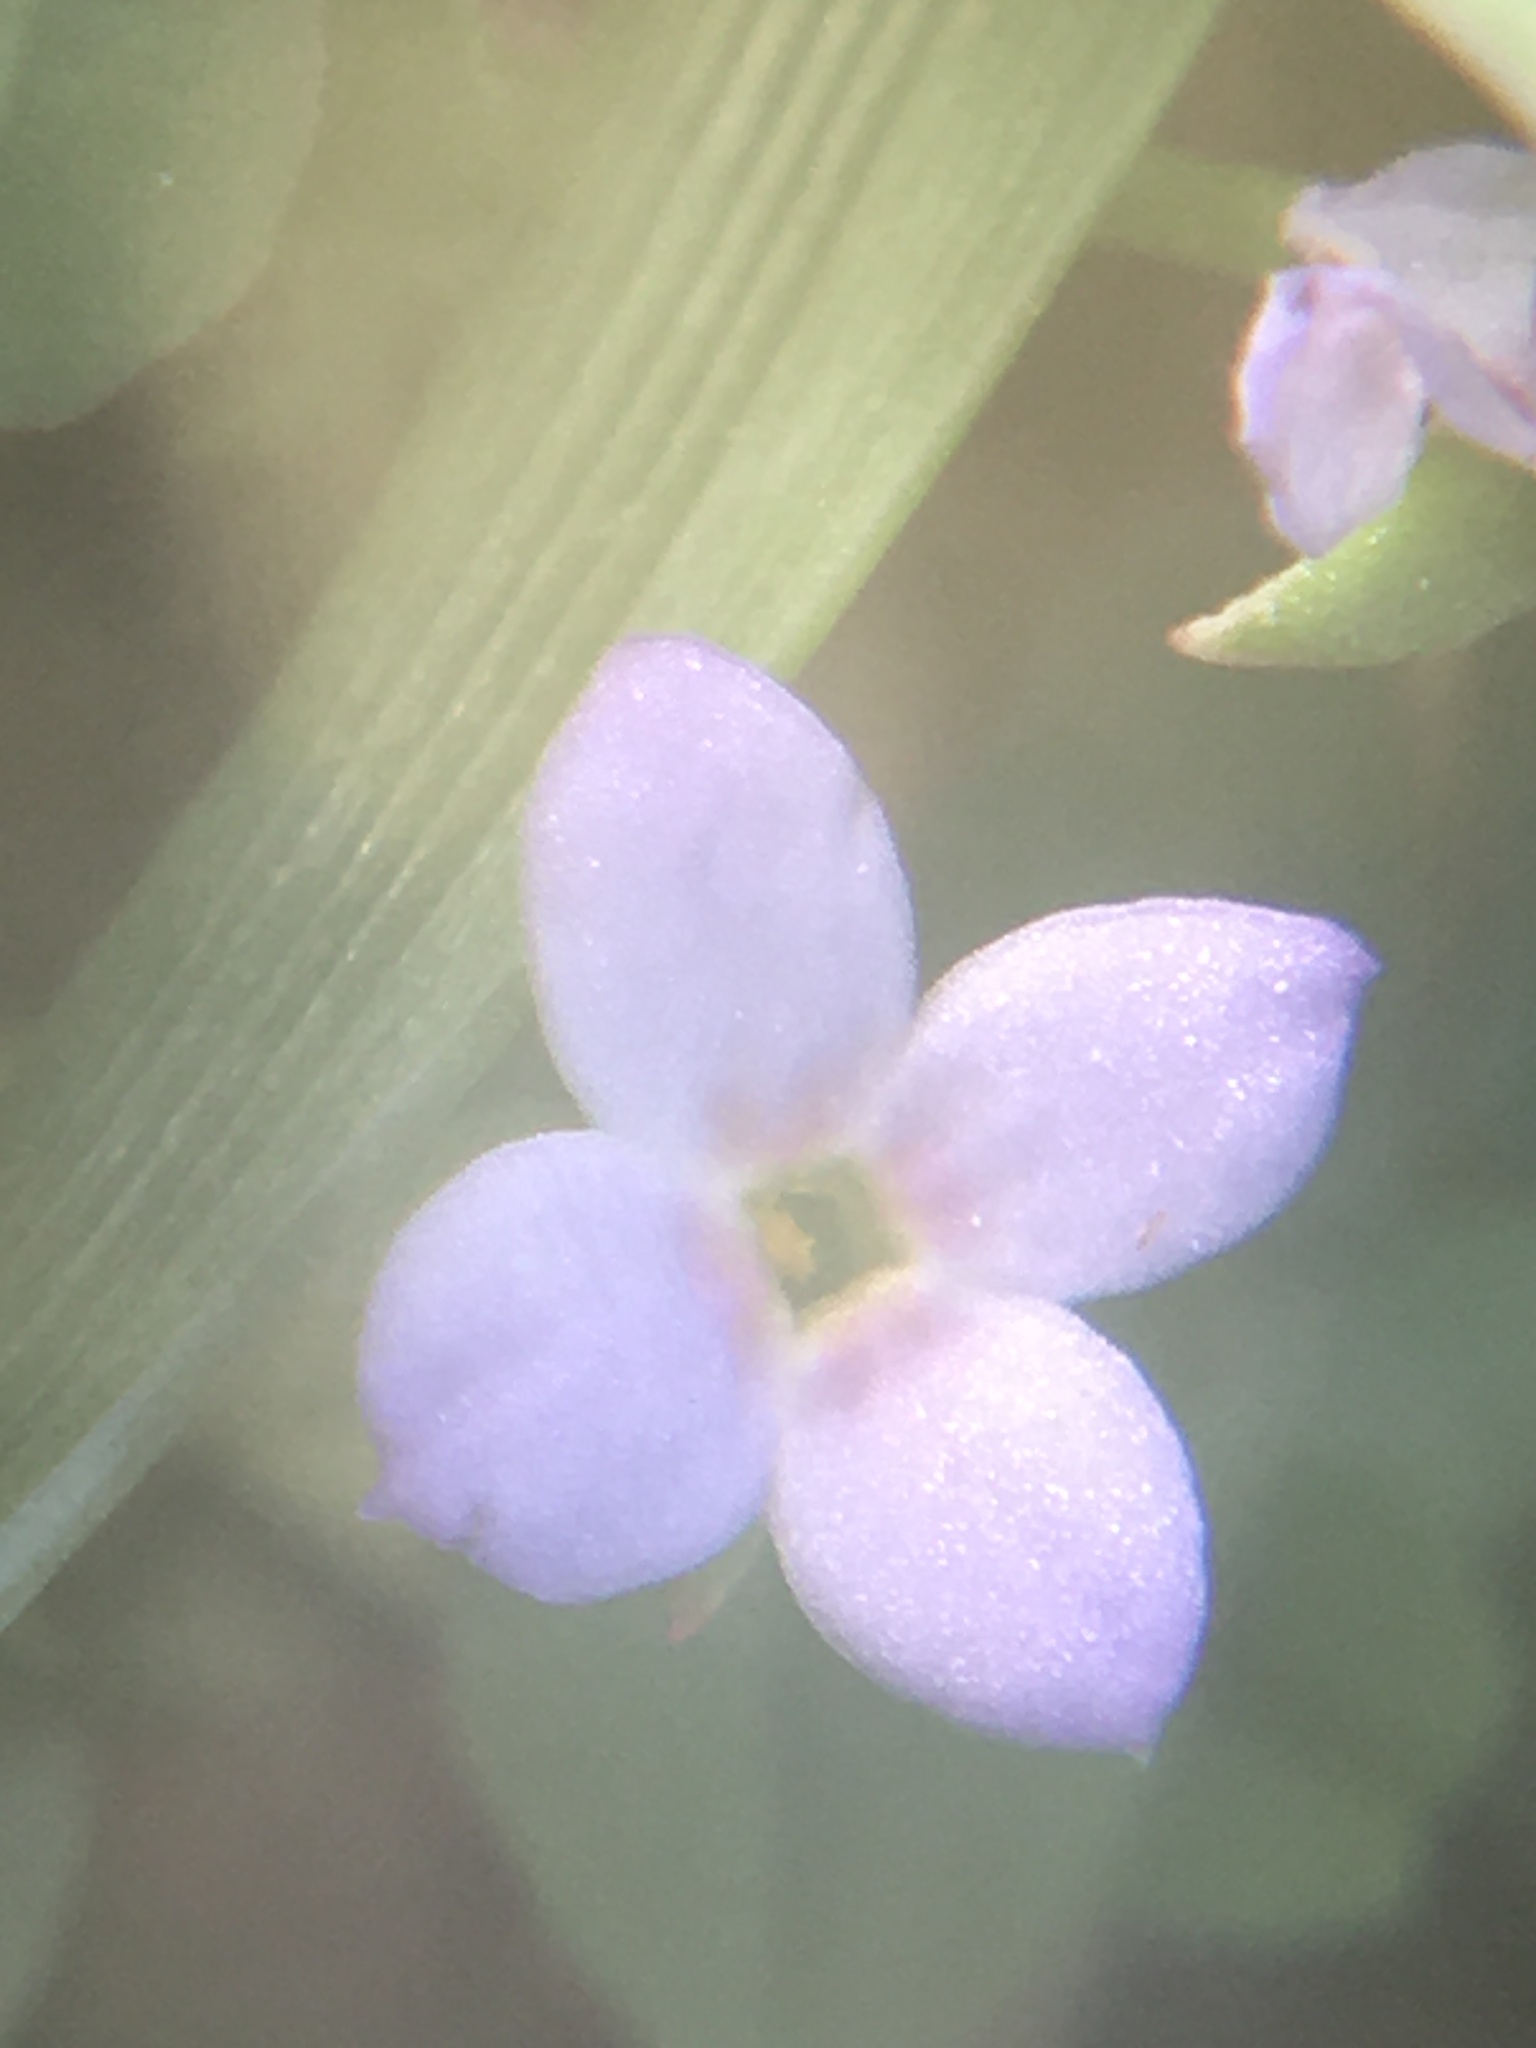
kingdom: Plantae
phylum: Tracheophyta
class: Magnoliopsida
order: Gentianales
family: Rubiaceae
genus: Houstonia
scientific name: Houstonia pusilla
